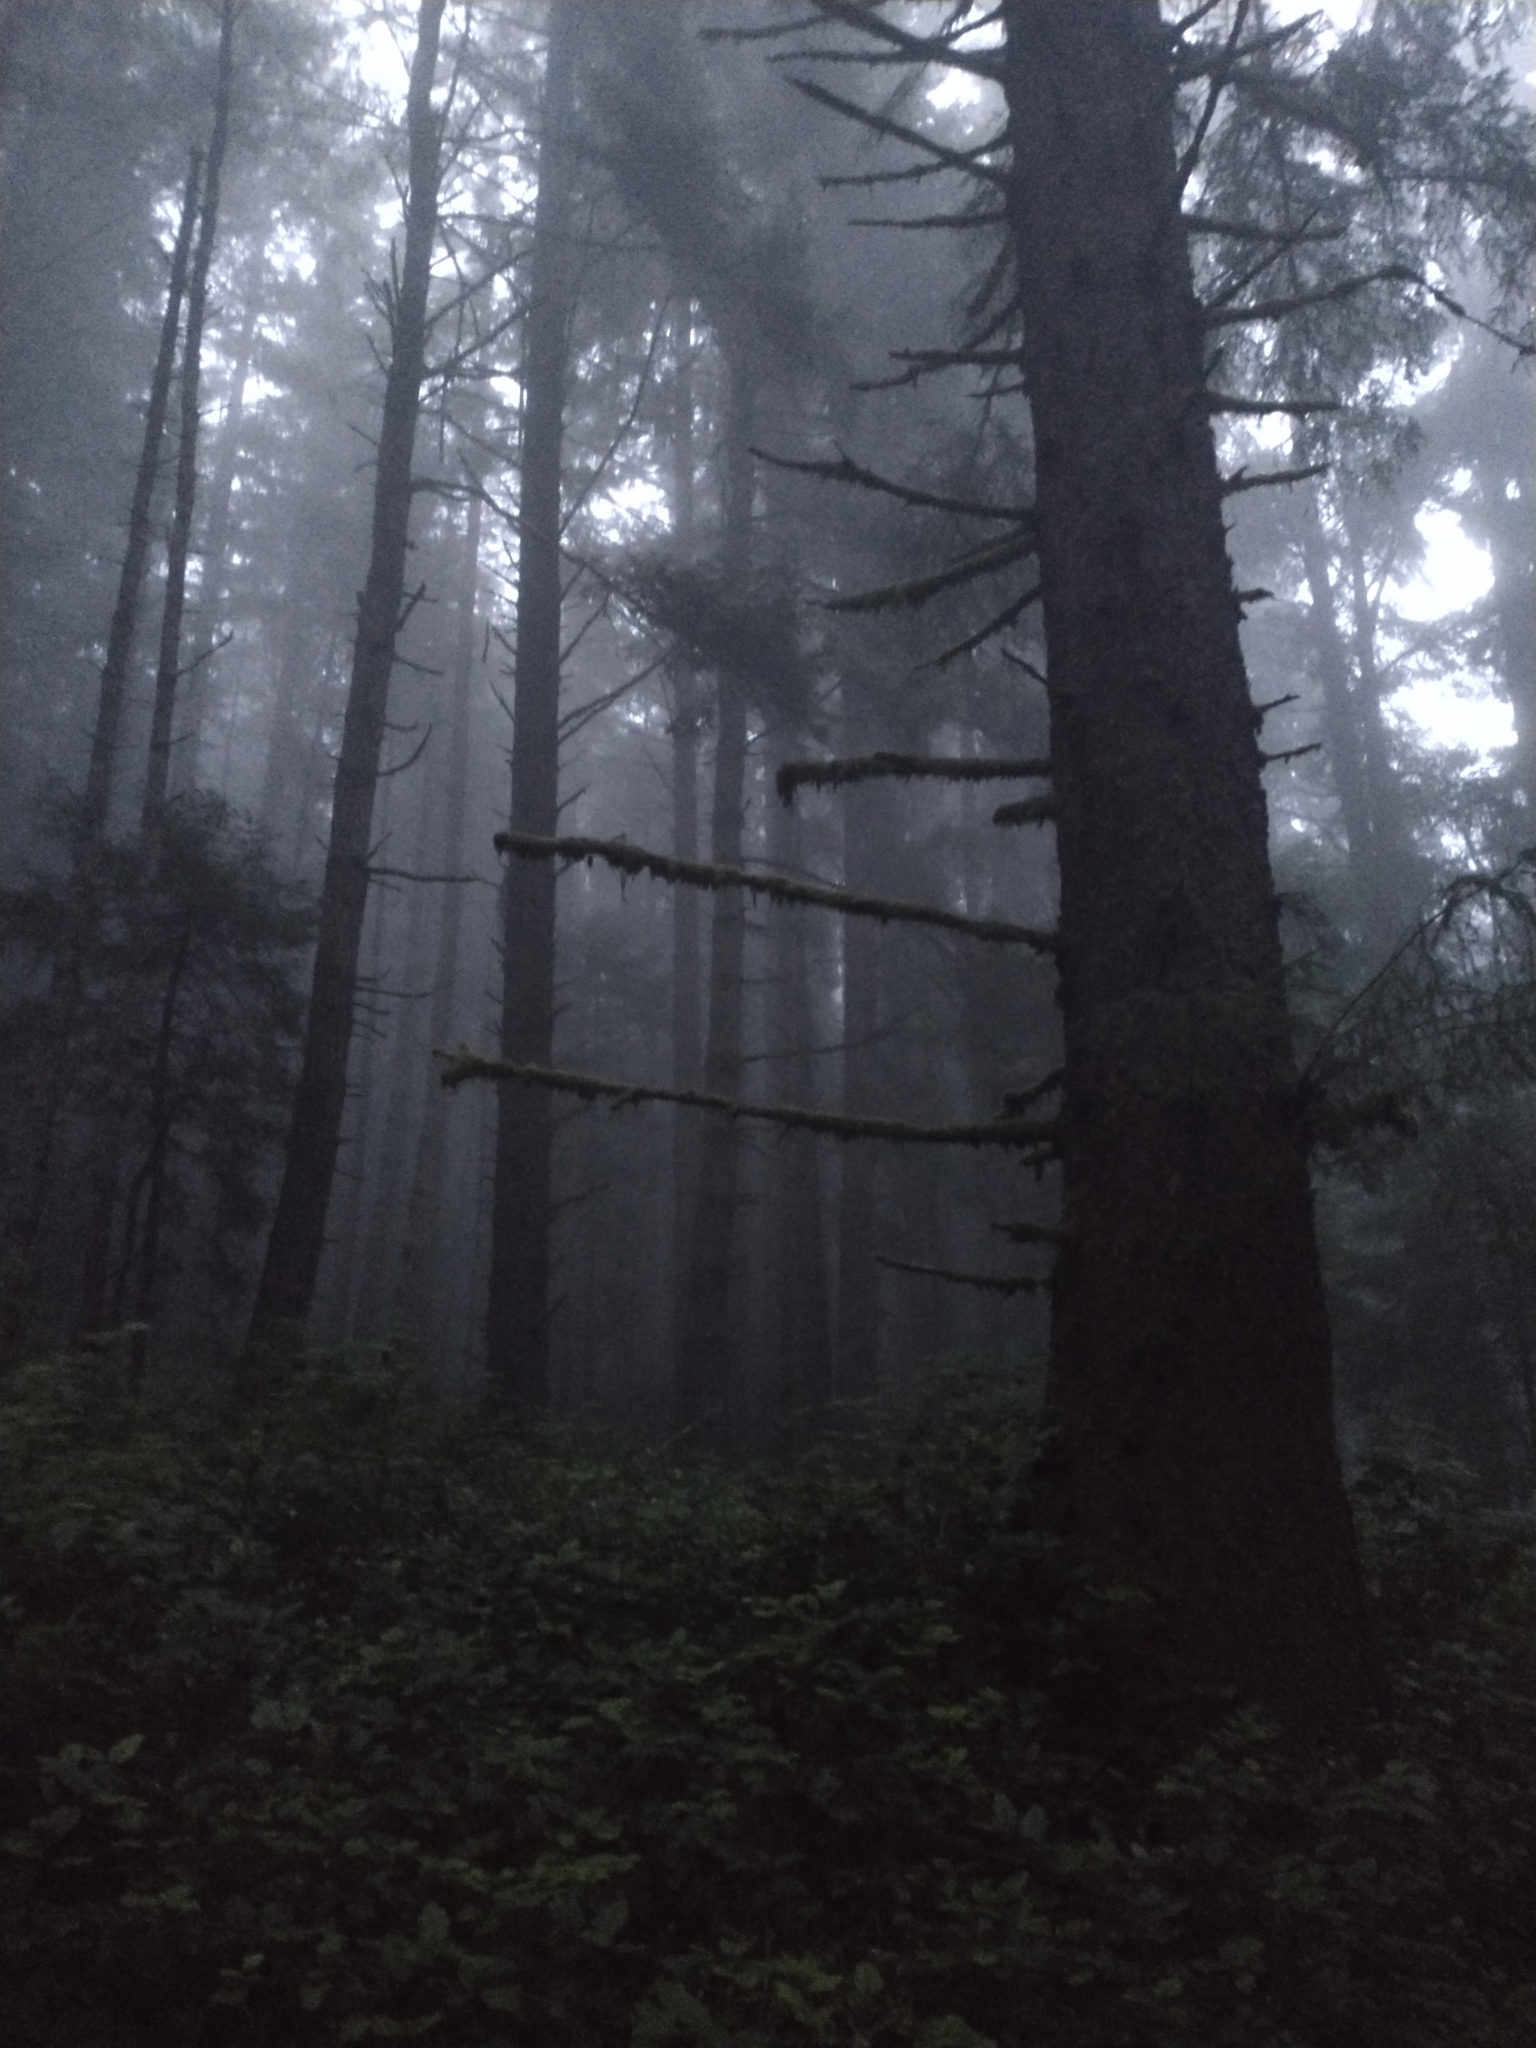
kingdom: Plantae
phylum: Tracheophyta
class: Pinopsida
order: Pinales
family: Pinaceae
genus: Picea
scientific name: Picea sitchensis
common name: Sitka spruce
